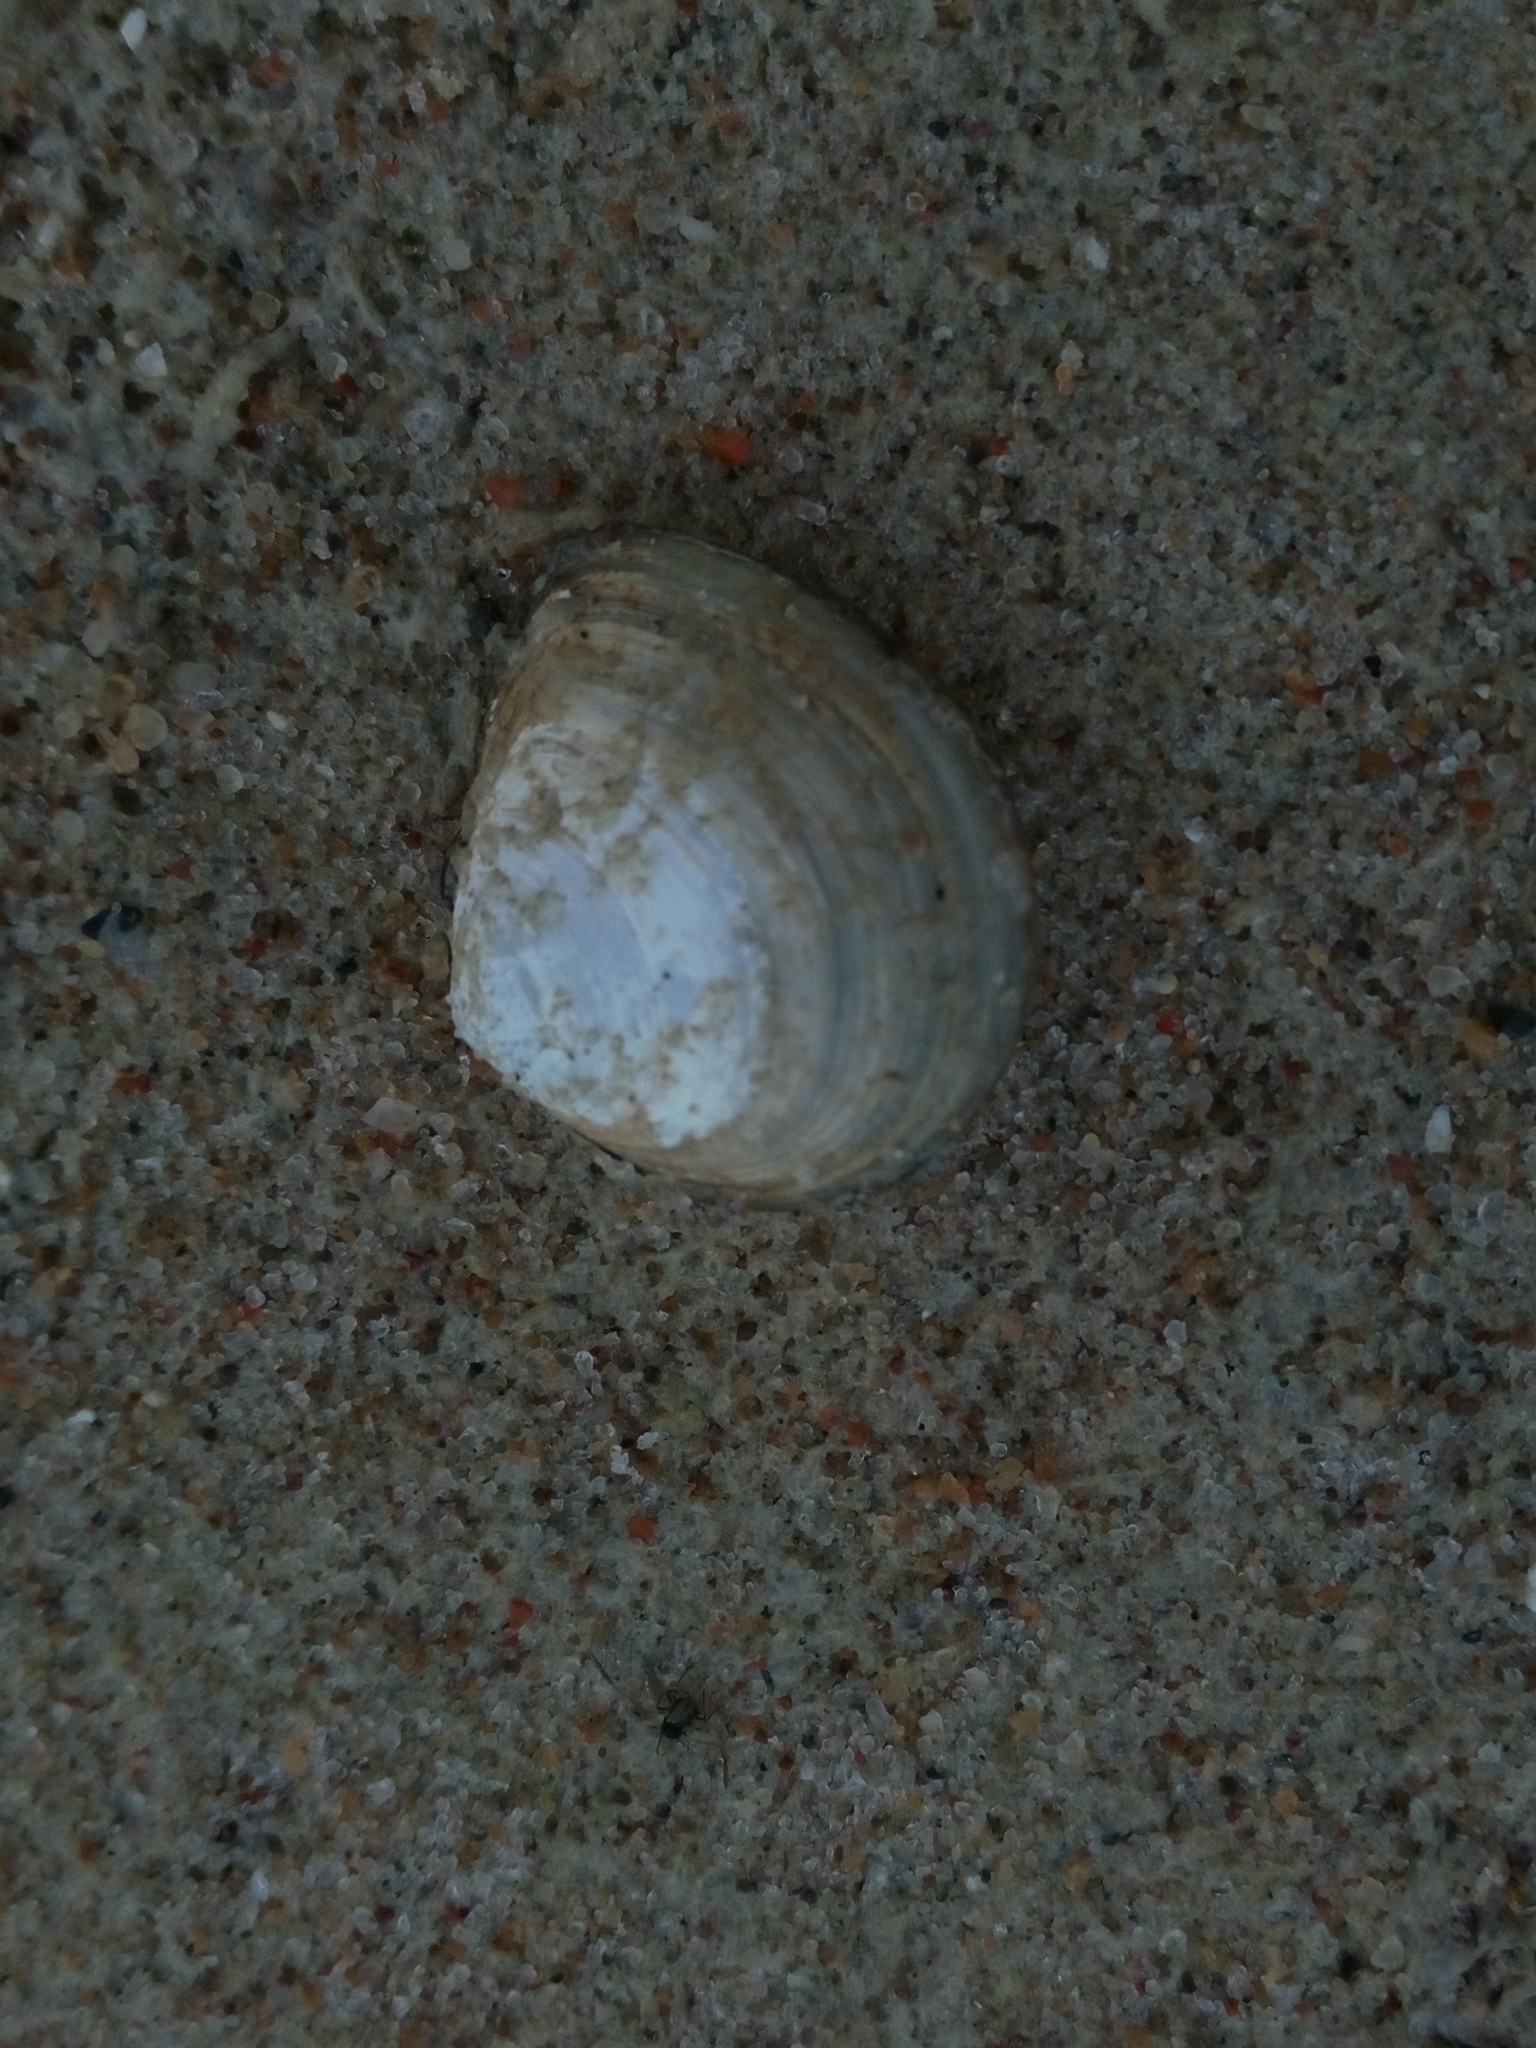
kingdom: Animalia
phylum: Mollusca
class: Bivalvia
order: Cardiida
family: Tellinidae
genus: Macoma
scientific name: Macoma balthica
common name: Baltic tellin
